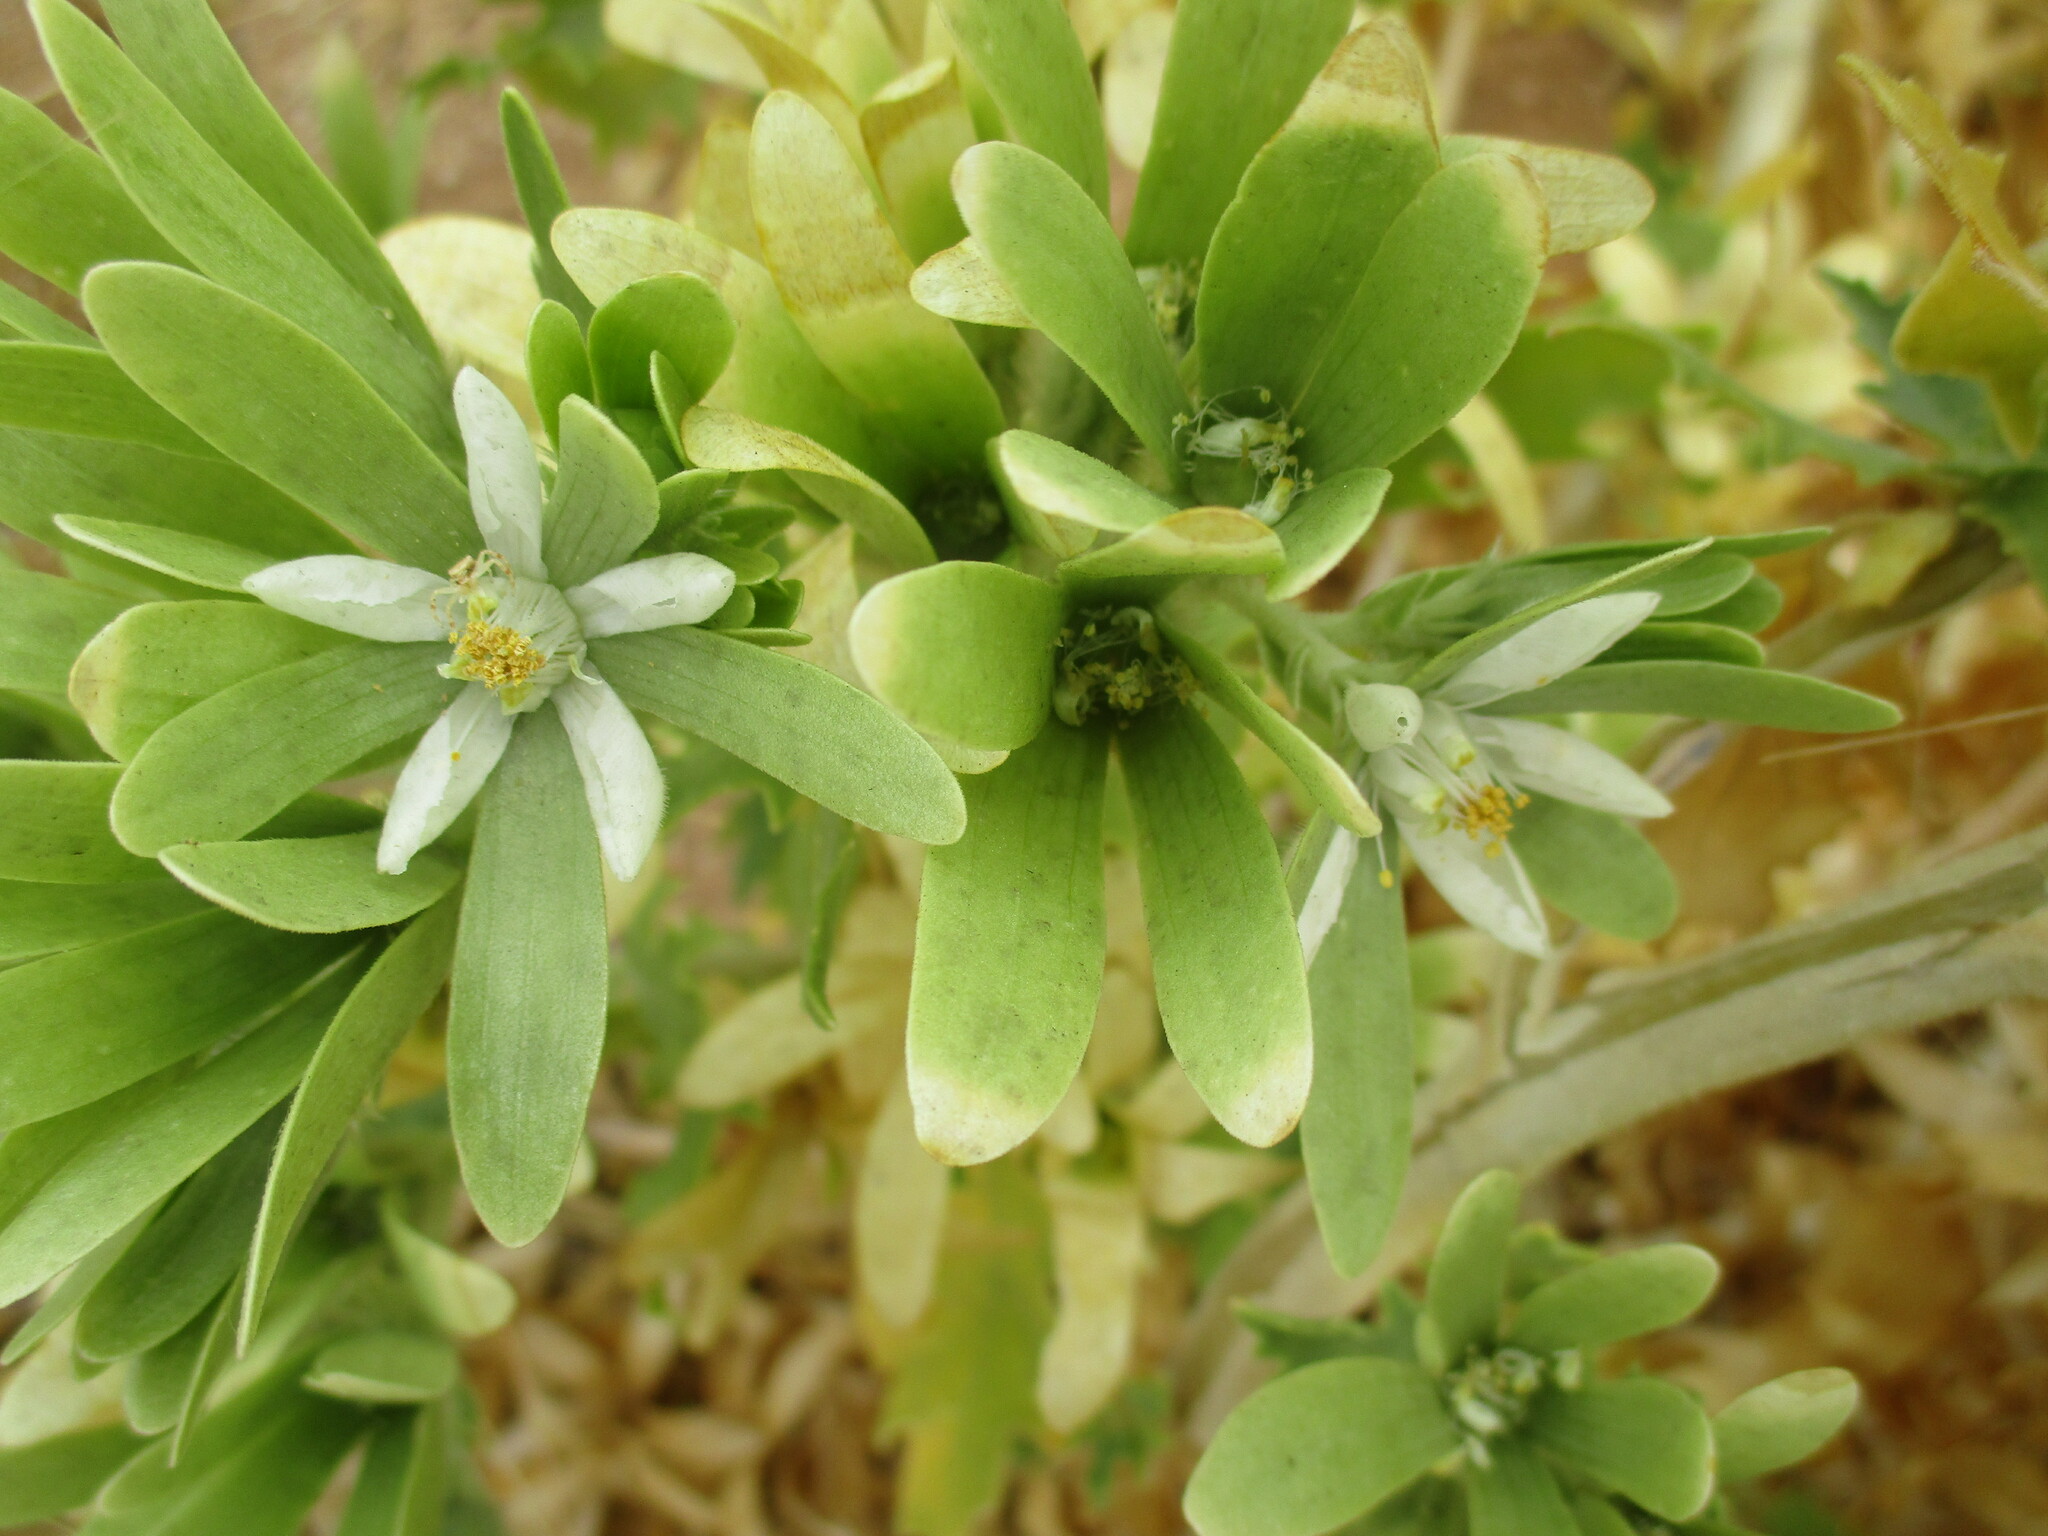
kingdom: Plantae
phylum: Tracheophyta
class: Magnoliopsida
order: Cornales
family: Loasaceae
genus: Kissenia
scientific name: Kissenia capensis
